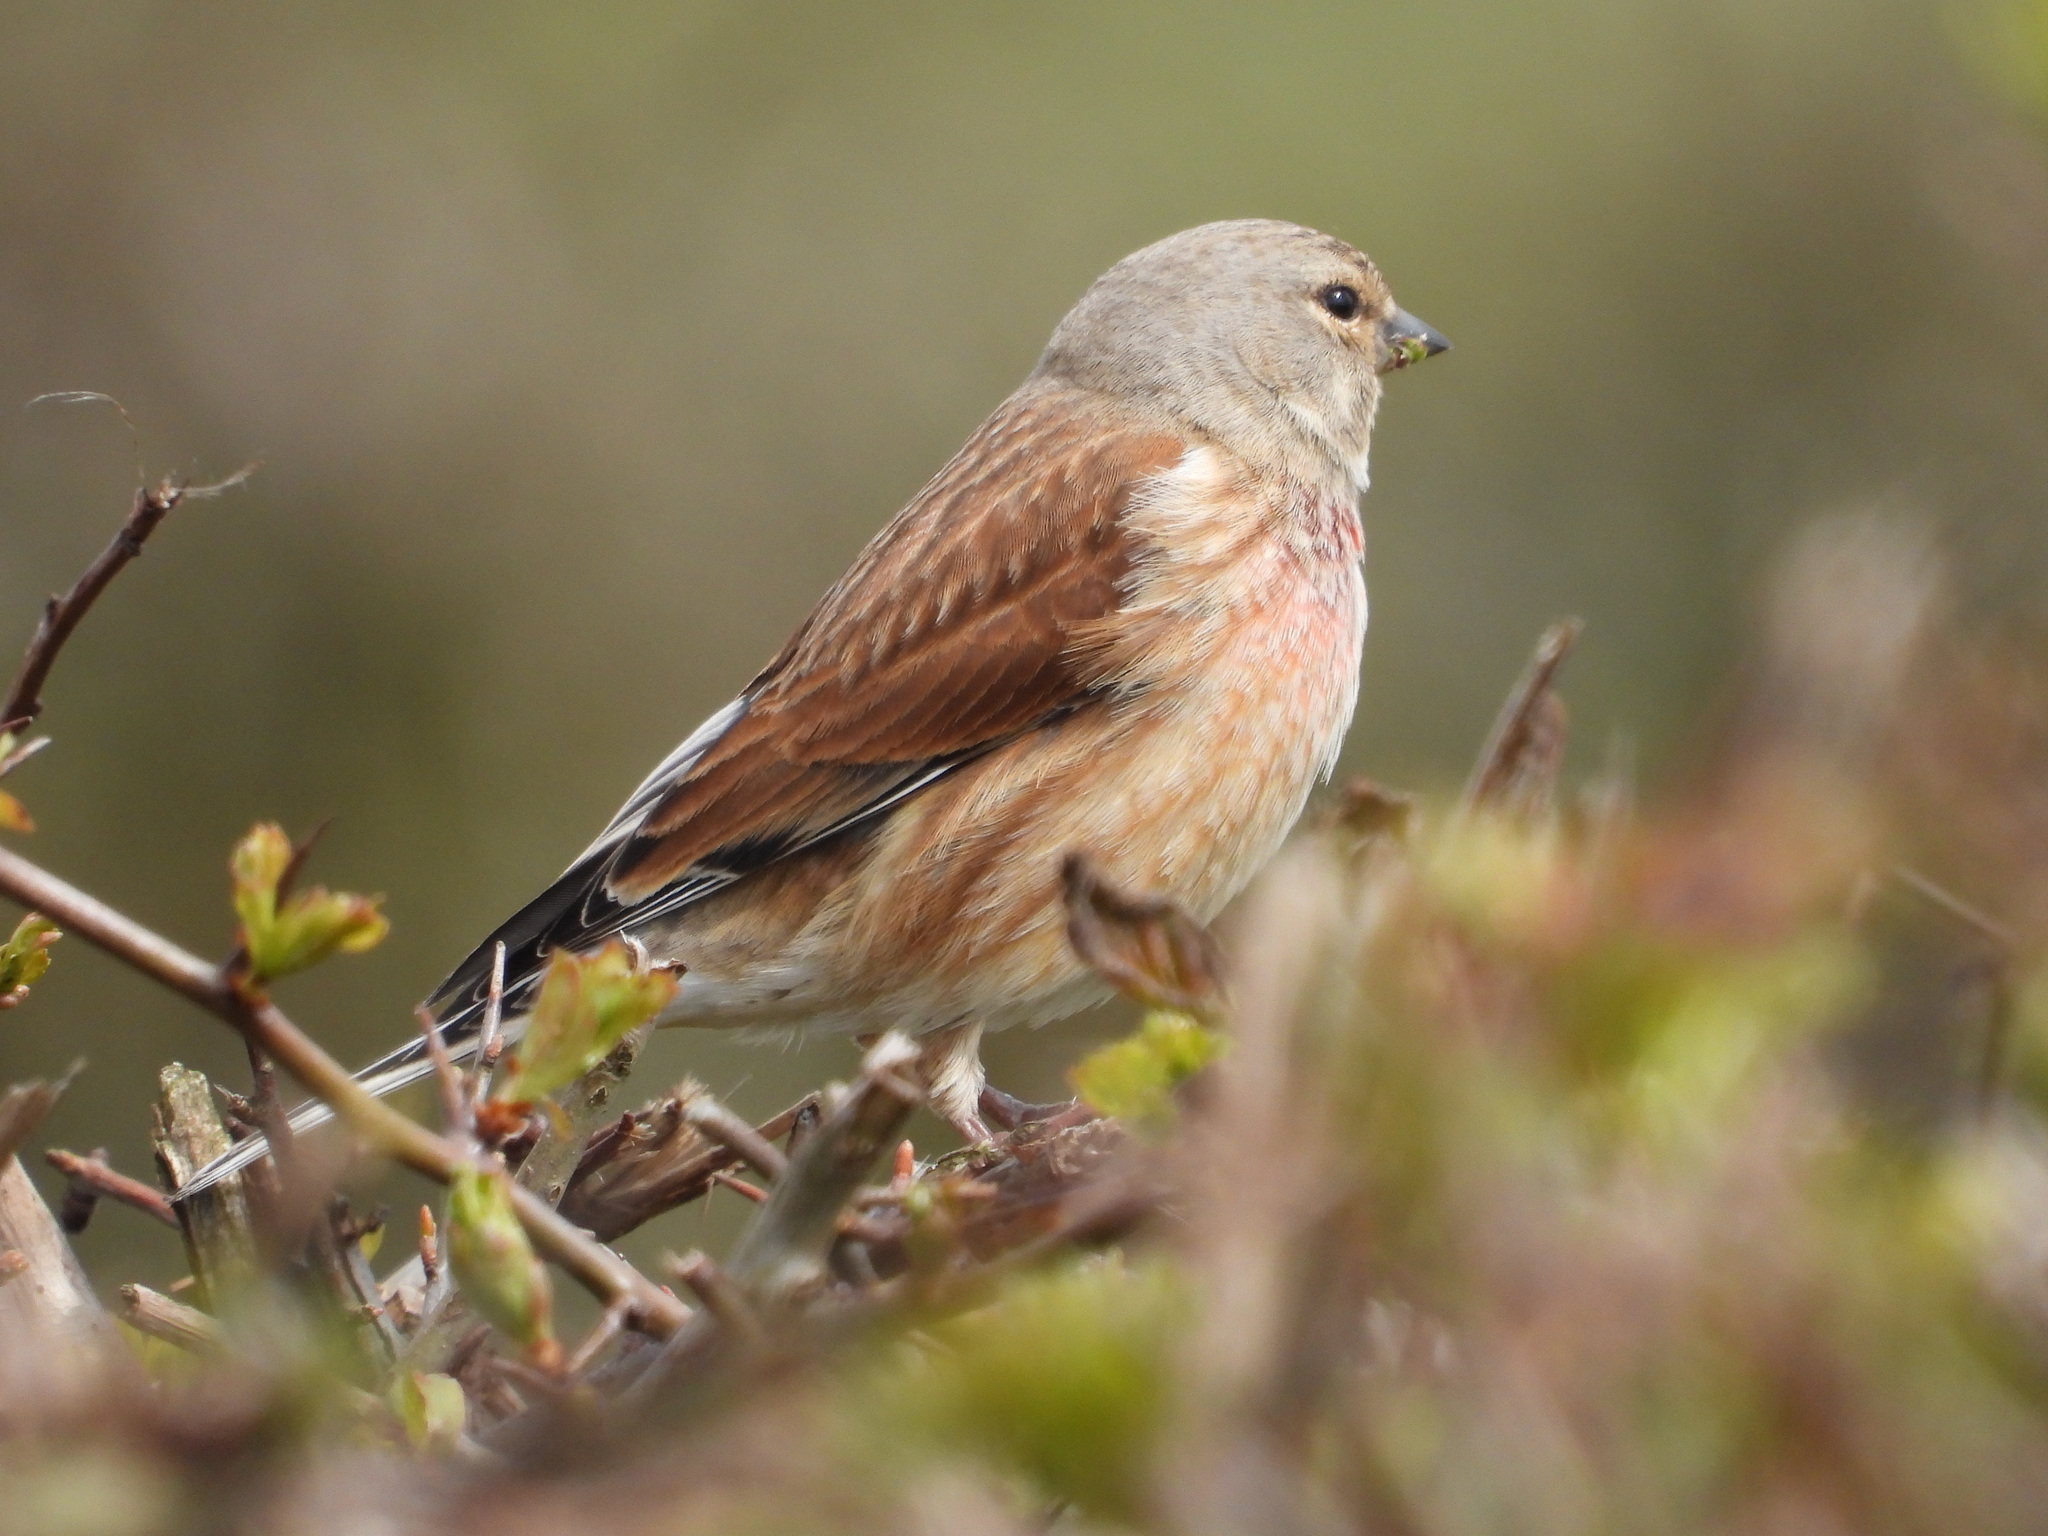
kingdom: Animalia
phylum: Chordata
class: Aves
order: Passeriformes
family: Fringillidae
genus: Linaria
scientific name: Linaria cannabina
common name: Common linnet
